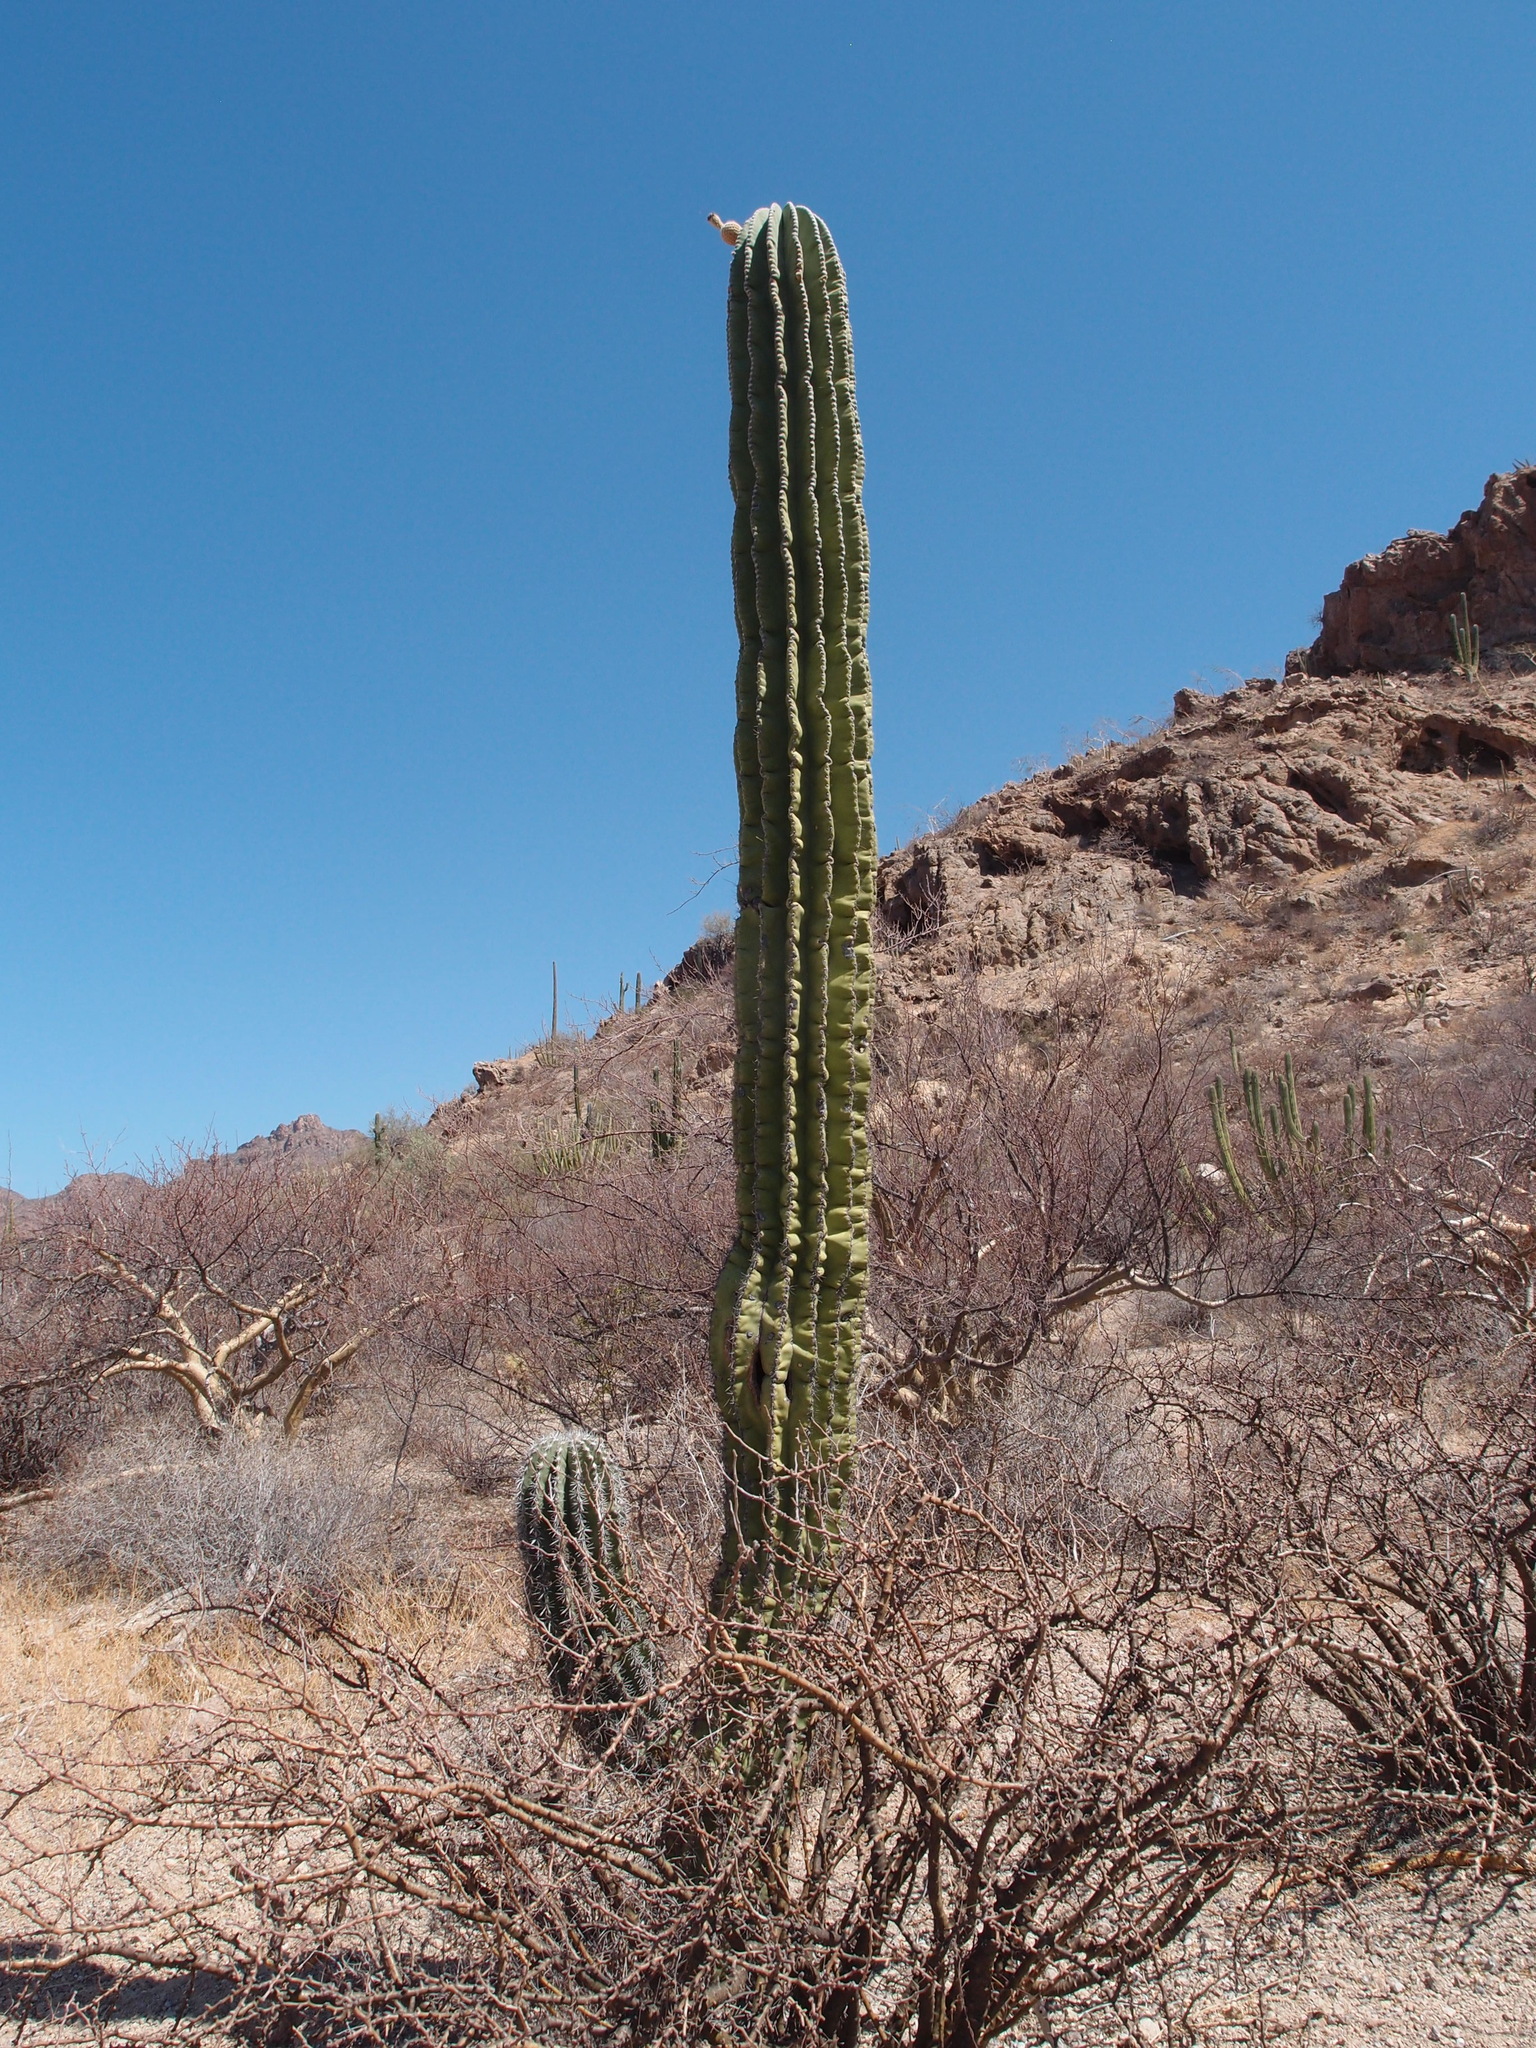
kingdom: Plantae
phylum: Tracheophyta
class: Magnoliopsida
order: Caryophyllales
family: Cactaceae
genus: Pachycereus
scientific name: Pachycereus pringlei
